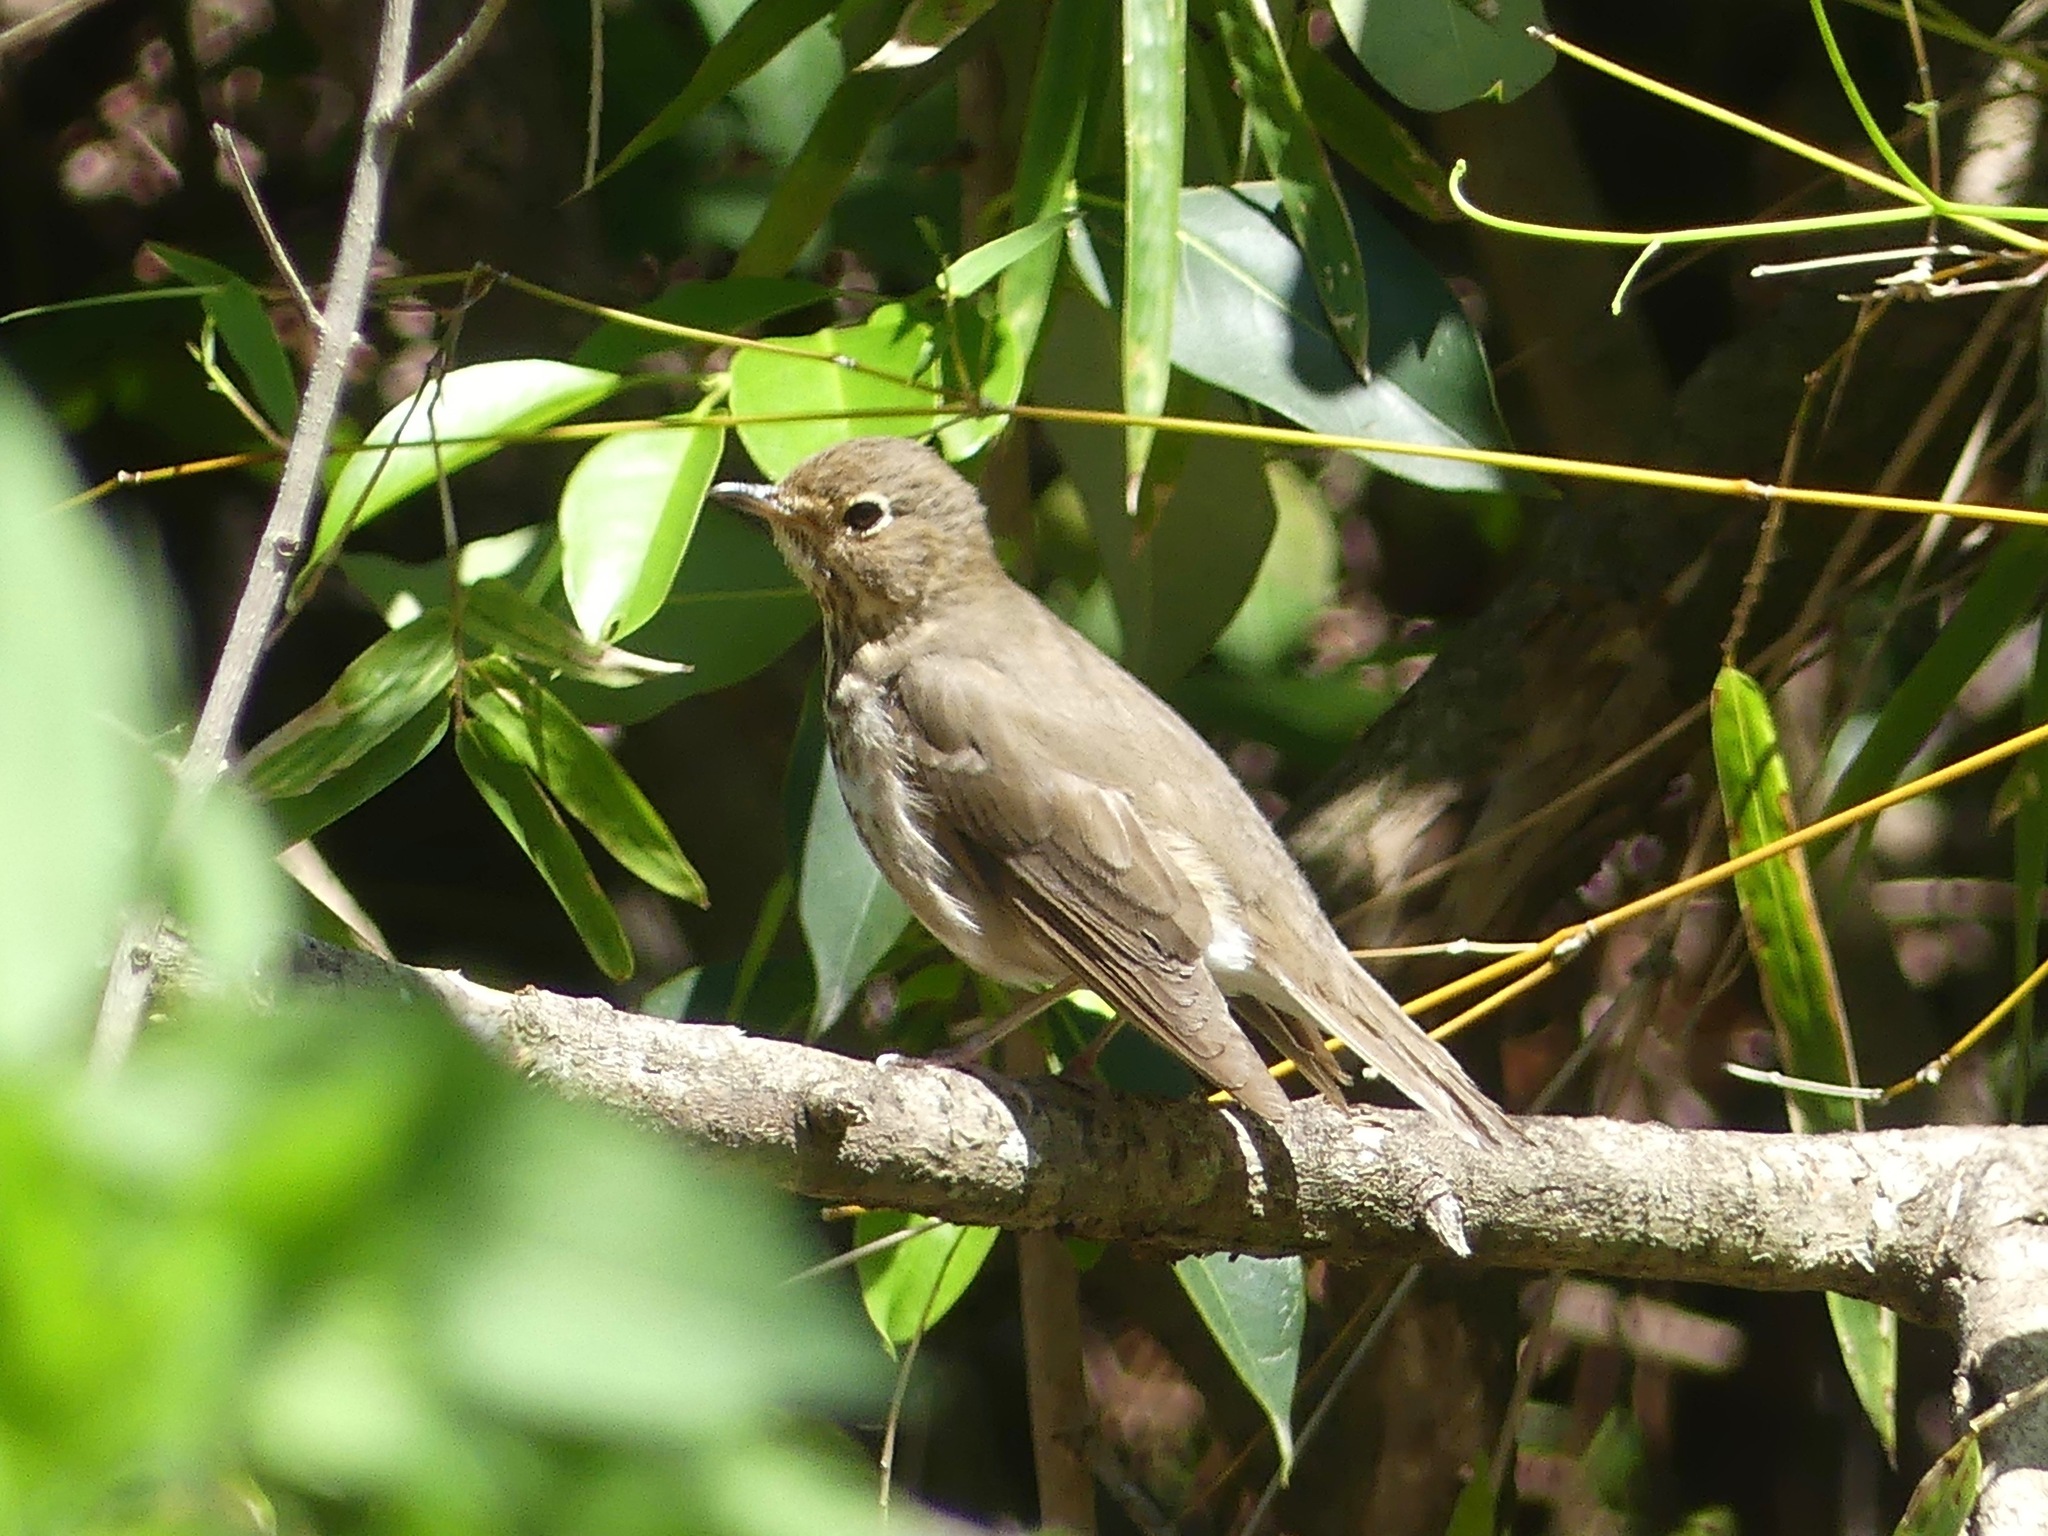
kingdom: Animalia
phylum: Chordata
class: Aves
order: Passeriformes
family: Turdidae
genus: Catharus
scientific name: Catharus ustulatus
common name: Swainson's thrush
